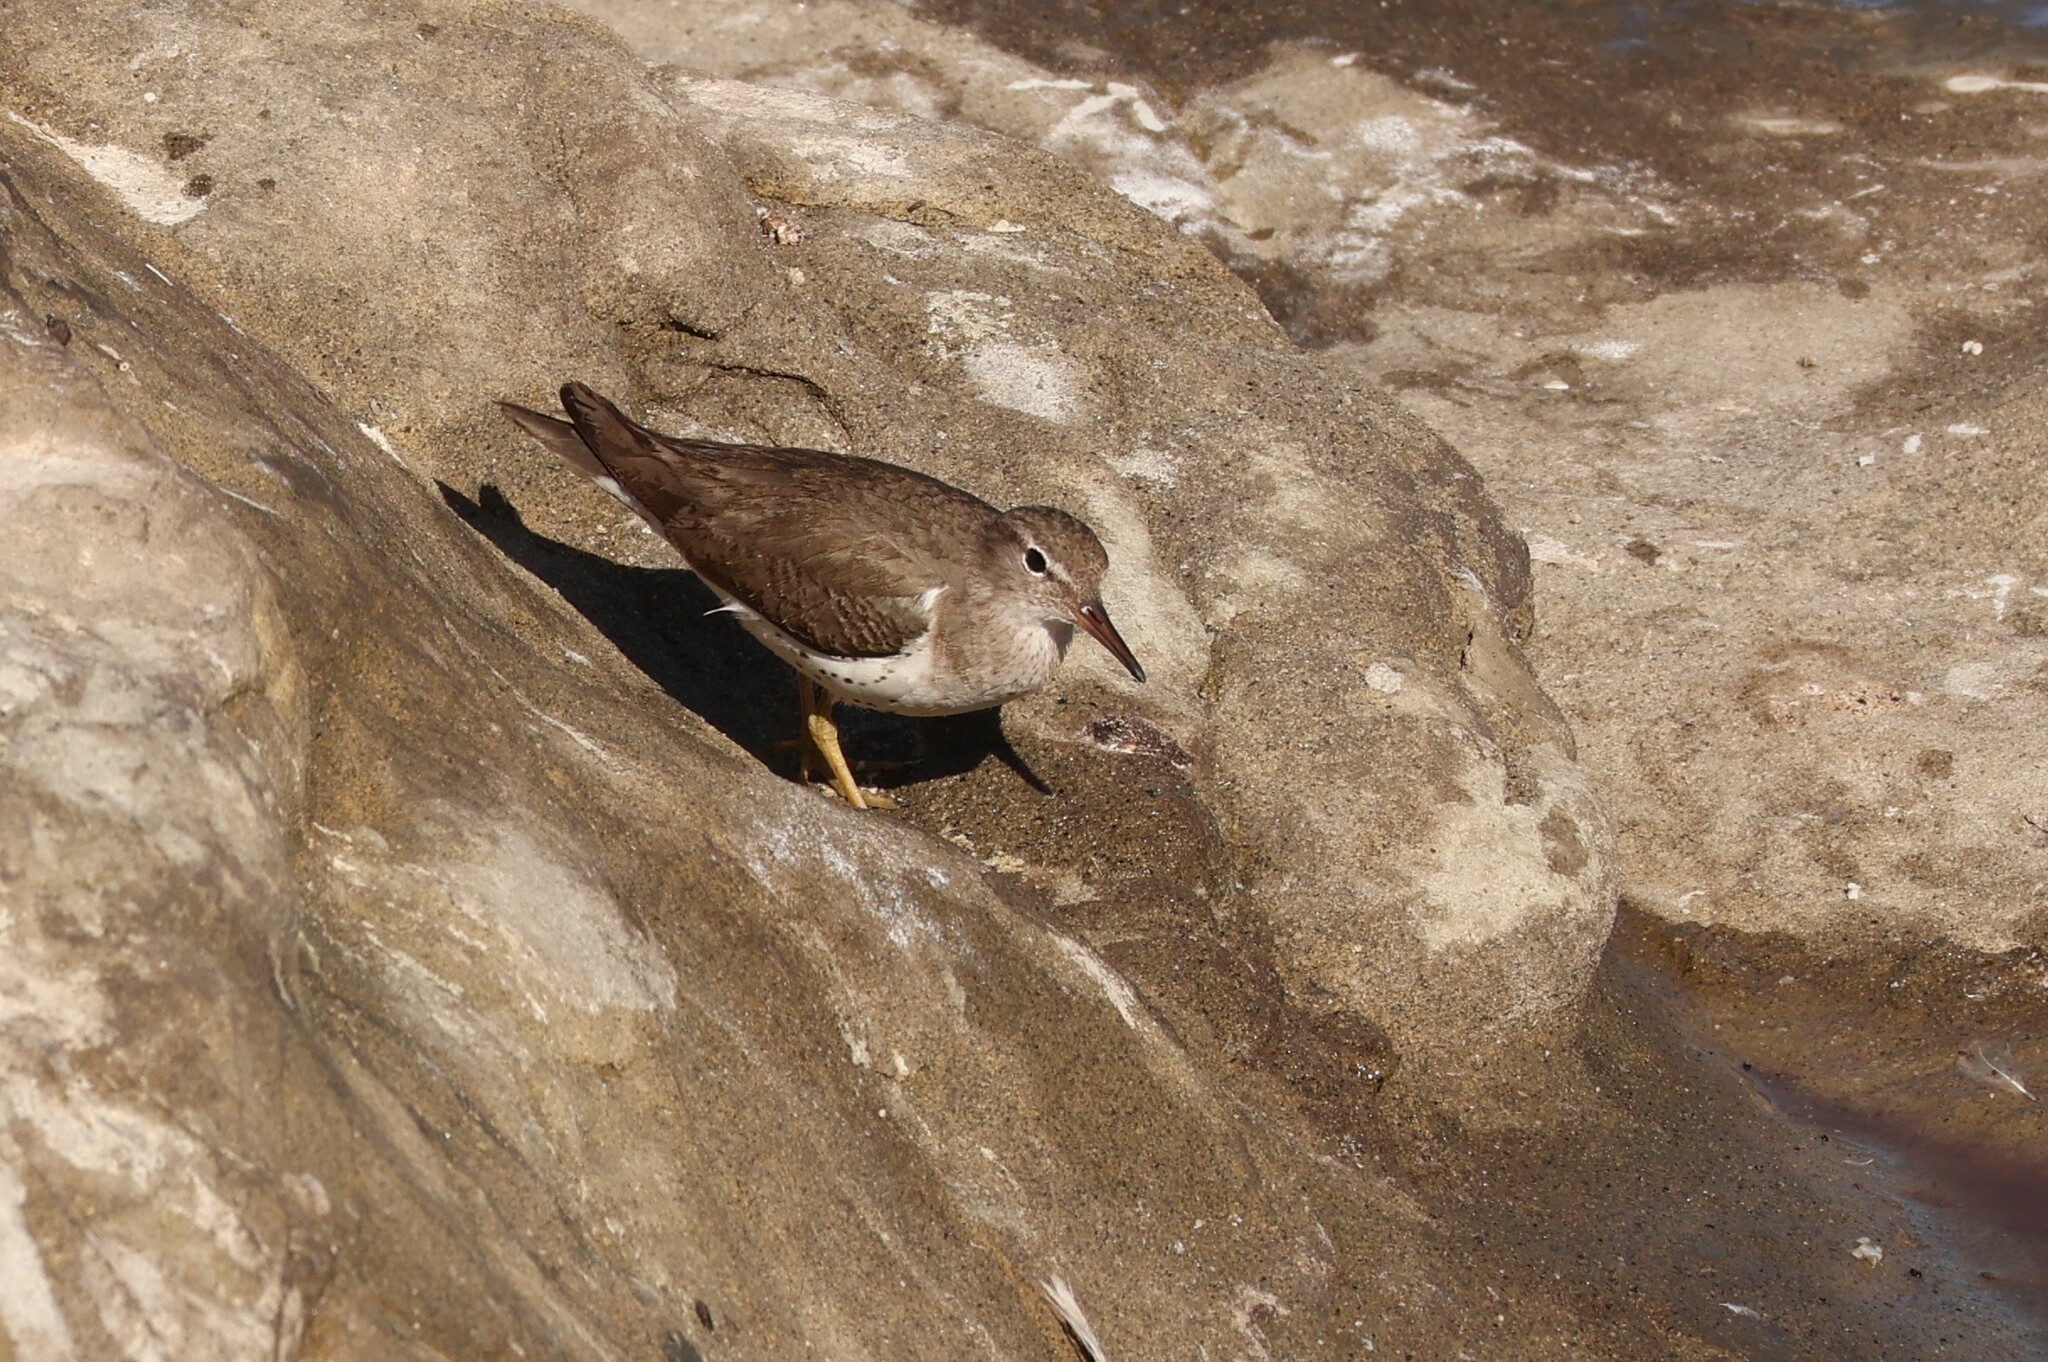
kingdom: Animalia
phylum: Chordata
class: Aves
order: Charadriiformes
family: Scolopacidae
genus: Actitis
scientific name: Actitis macularius
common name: Spotted sandpiper
